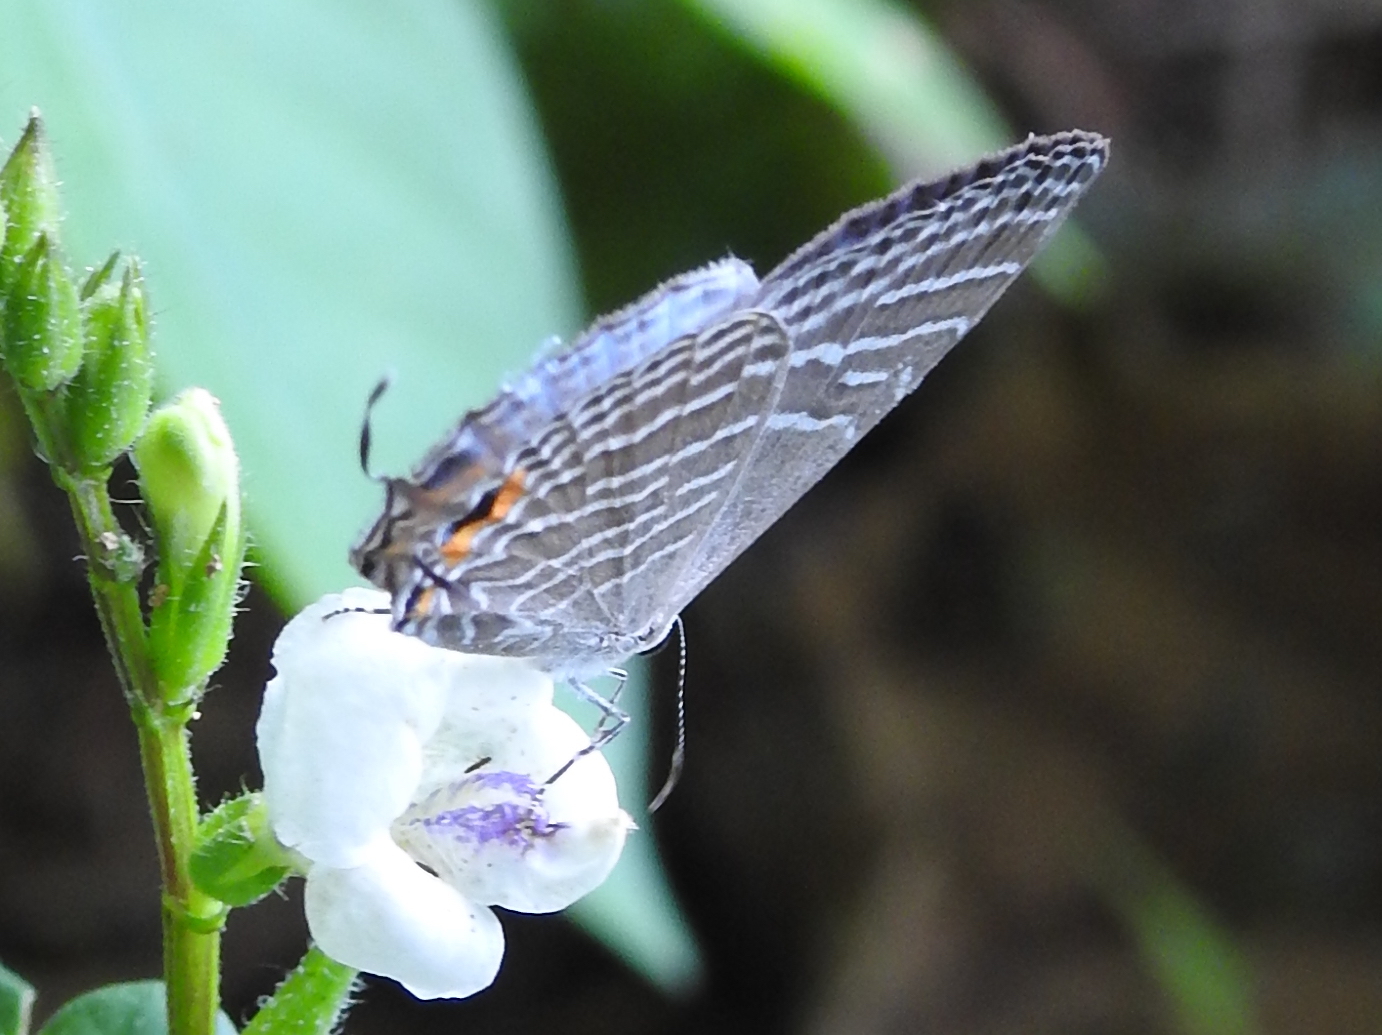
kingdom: Animalia
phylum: Arthropoda
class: Insecta
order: Lepidoptera
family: Lycaenidae
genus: Jamides
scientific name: Jamides celeno
